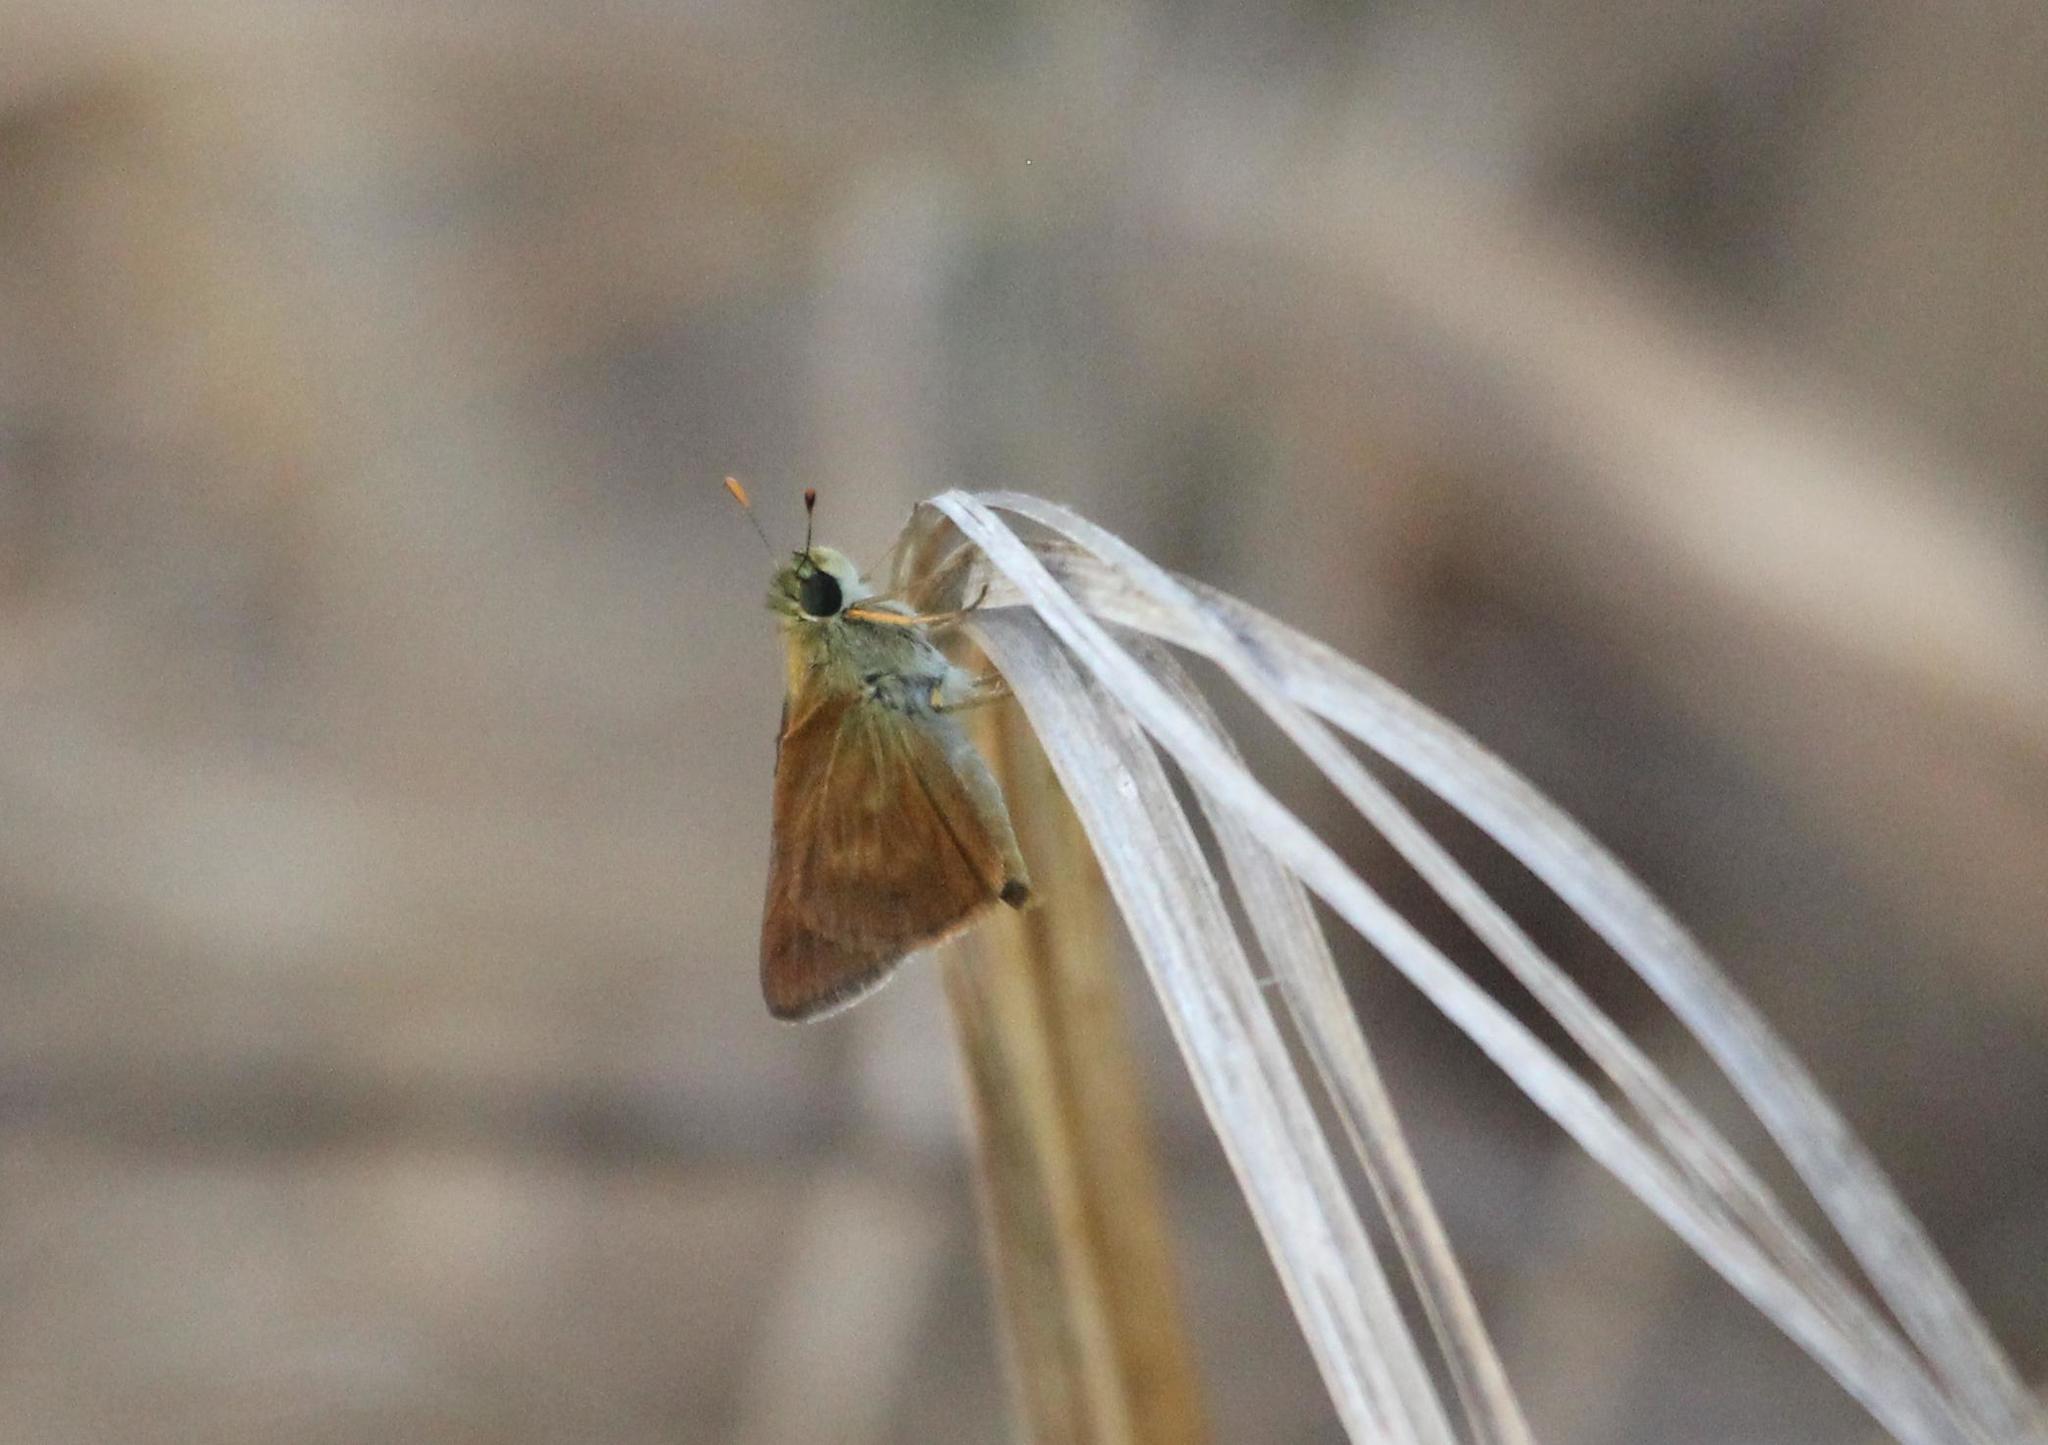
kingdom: Animalia
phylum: Arthropoda
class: Insecta
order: Lepidoptera
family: Hesperiidae
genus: Polites
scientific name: Polites otho
